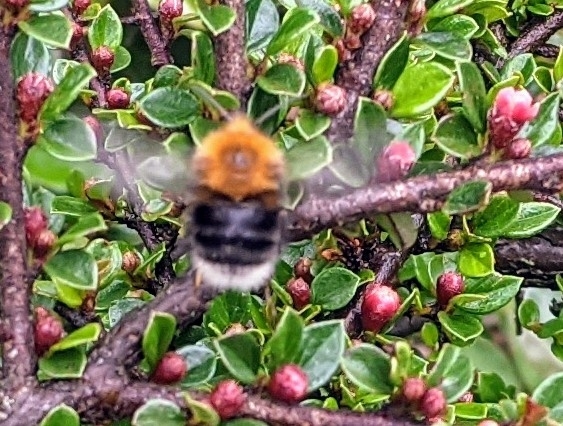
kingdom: Animalia
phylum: Arthropoda
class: Insecta
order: Hymenoptera
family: Apidae
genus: Bombus
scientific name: Bombus hypnorum
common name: New garden bumblebee
